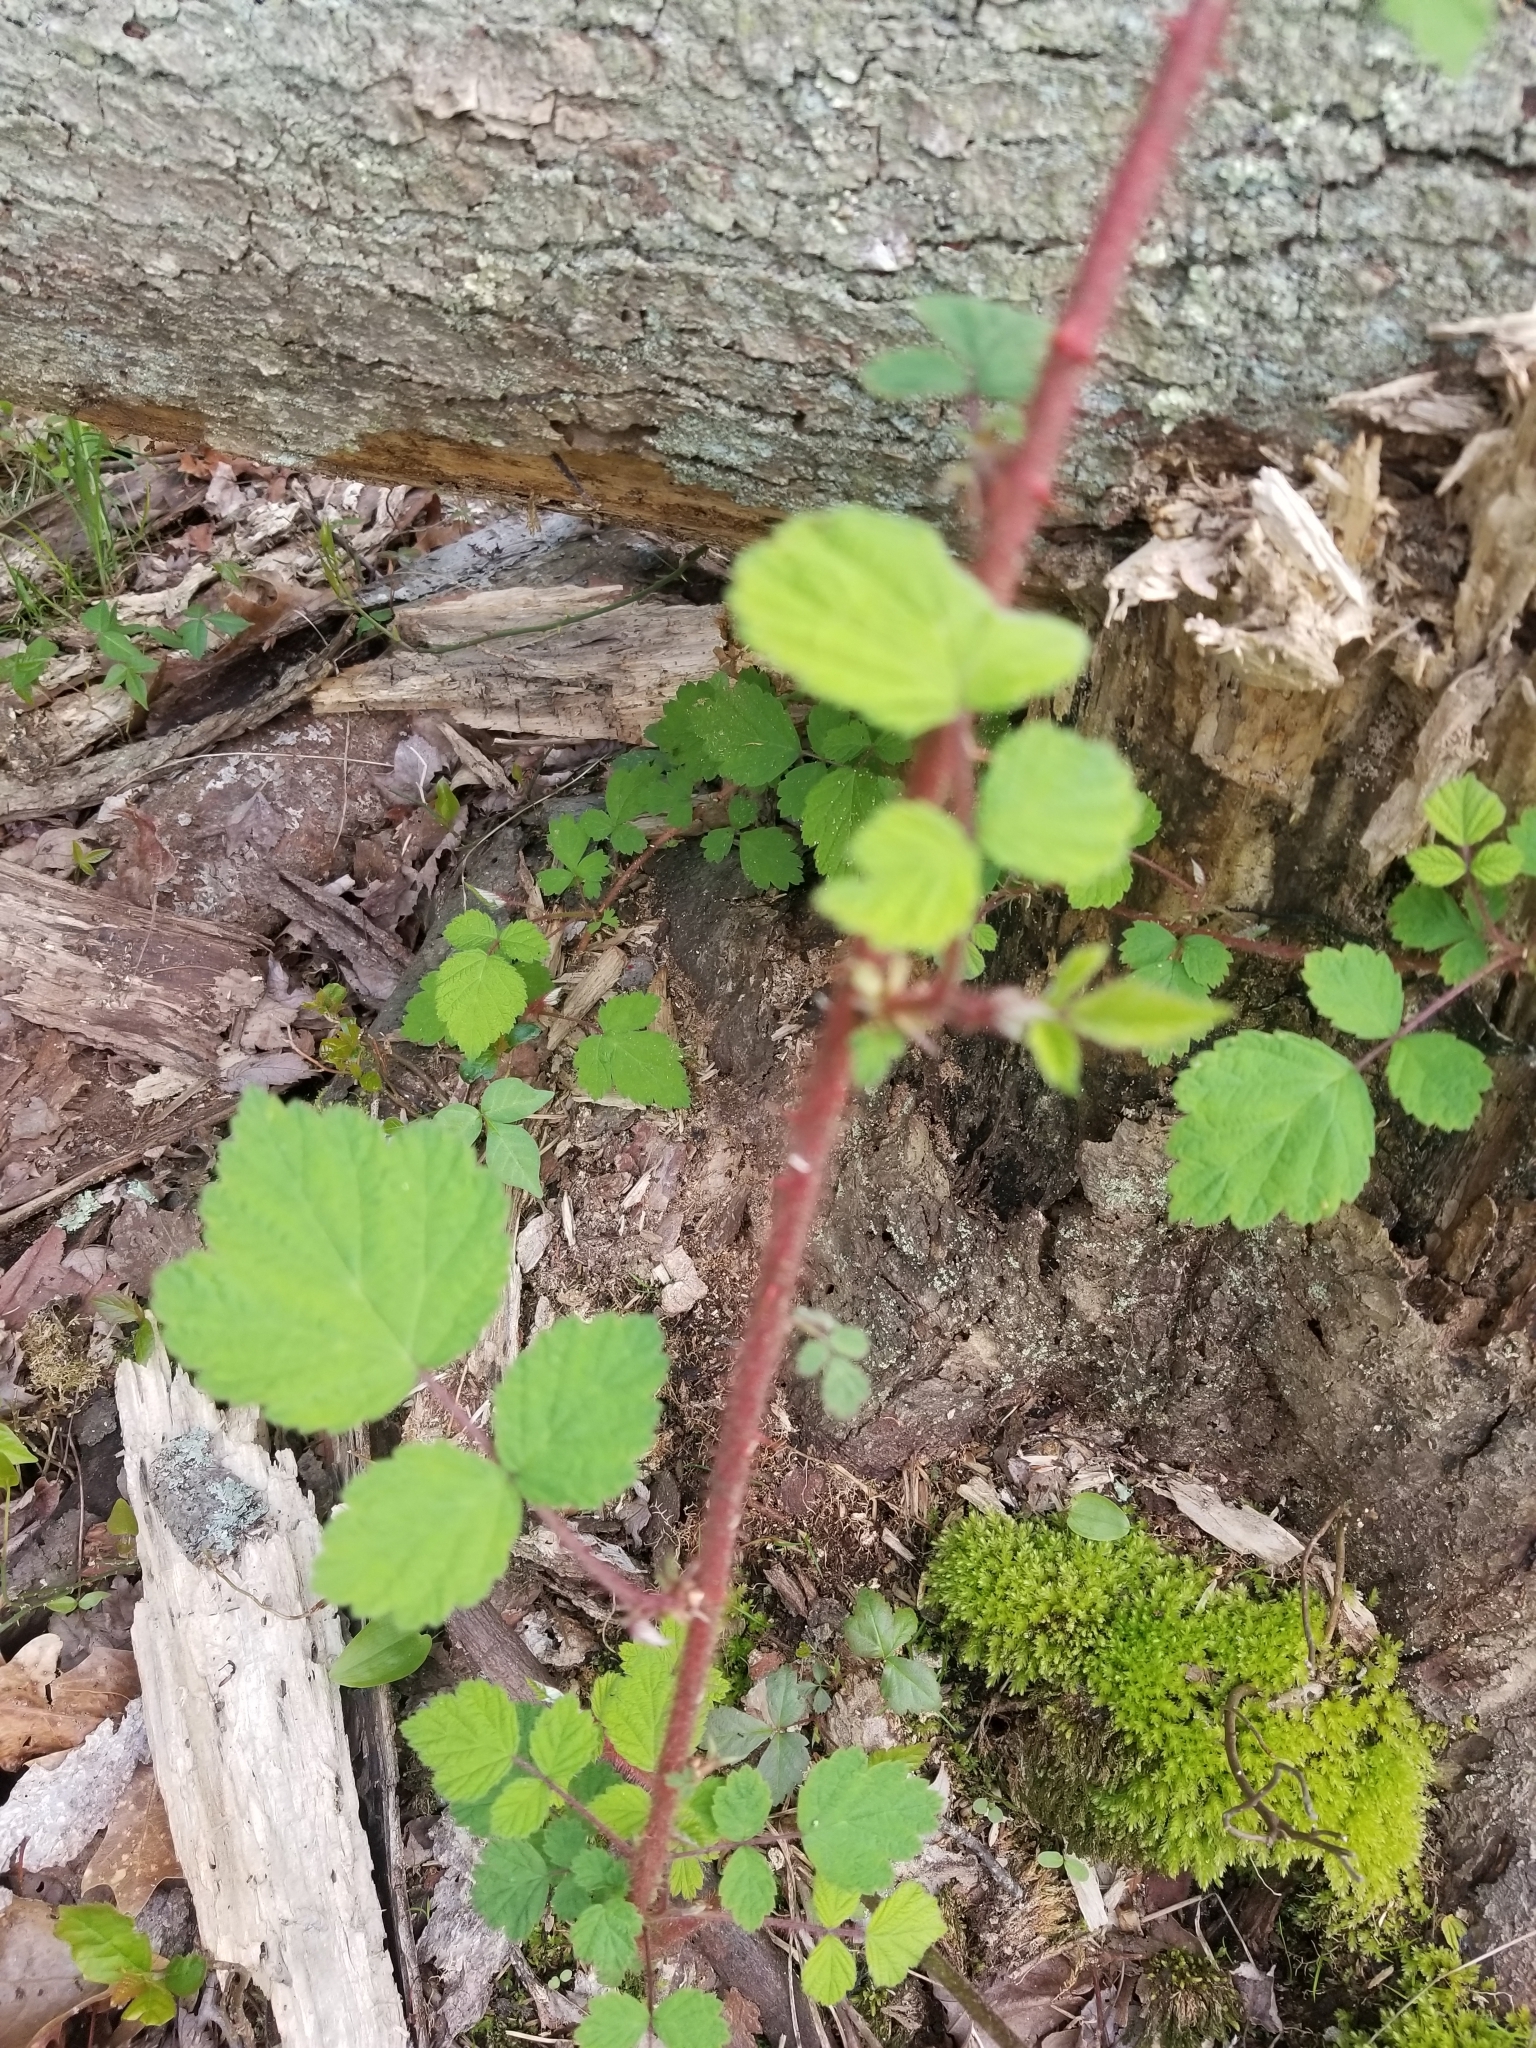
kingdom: Plantae
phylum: Tracheophyta
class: Magnoliopsida
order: Rosales
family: Rosaceae
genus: Rubus
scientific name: Rubus phoenicolasius
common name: Japanese wineberry
